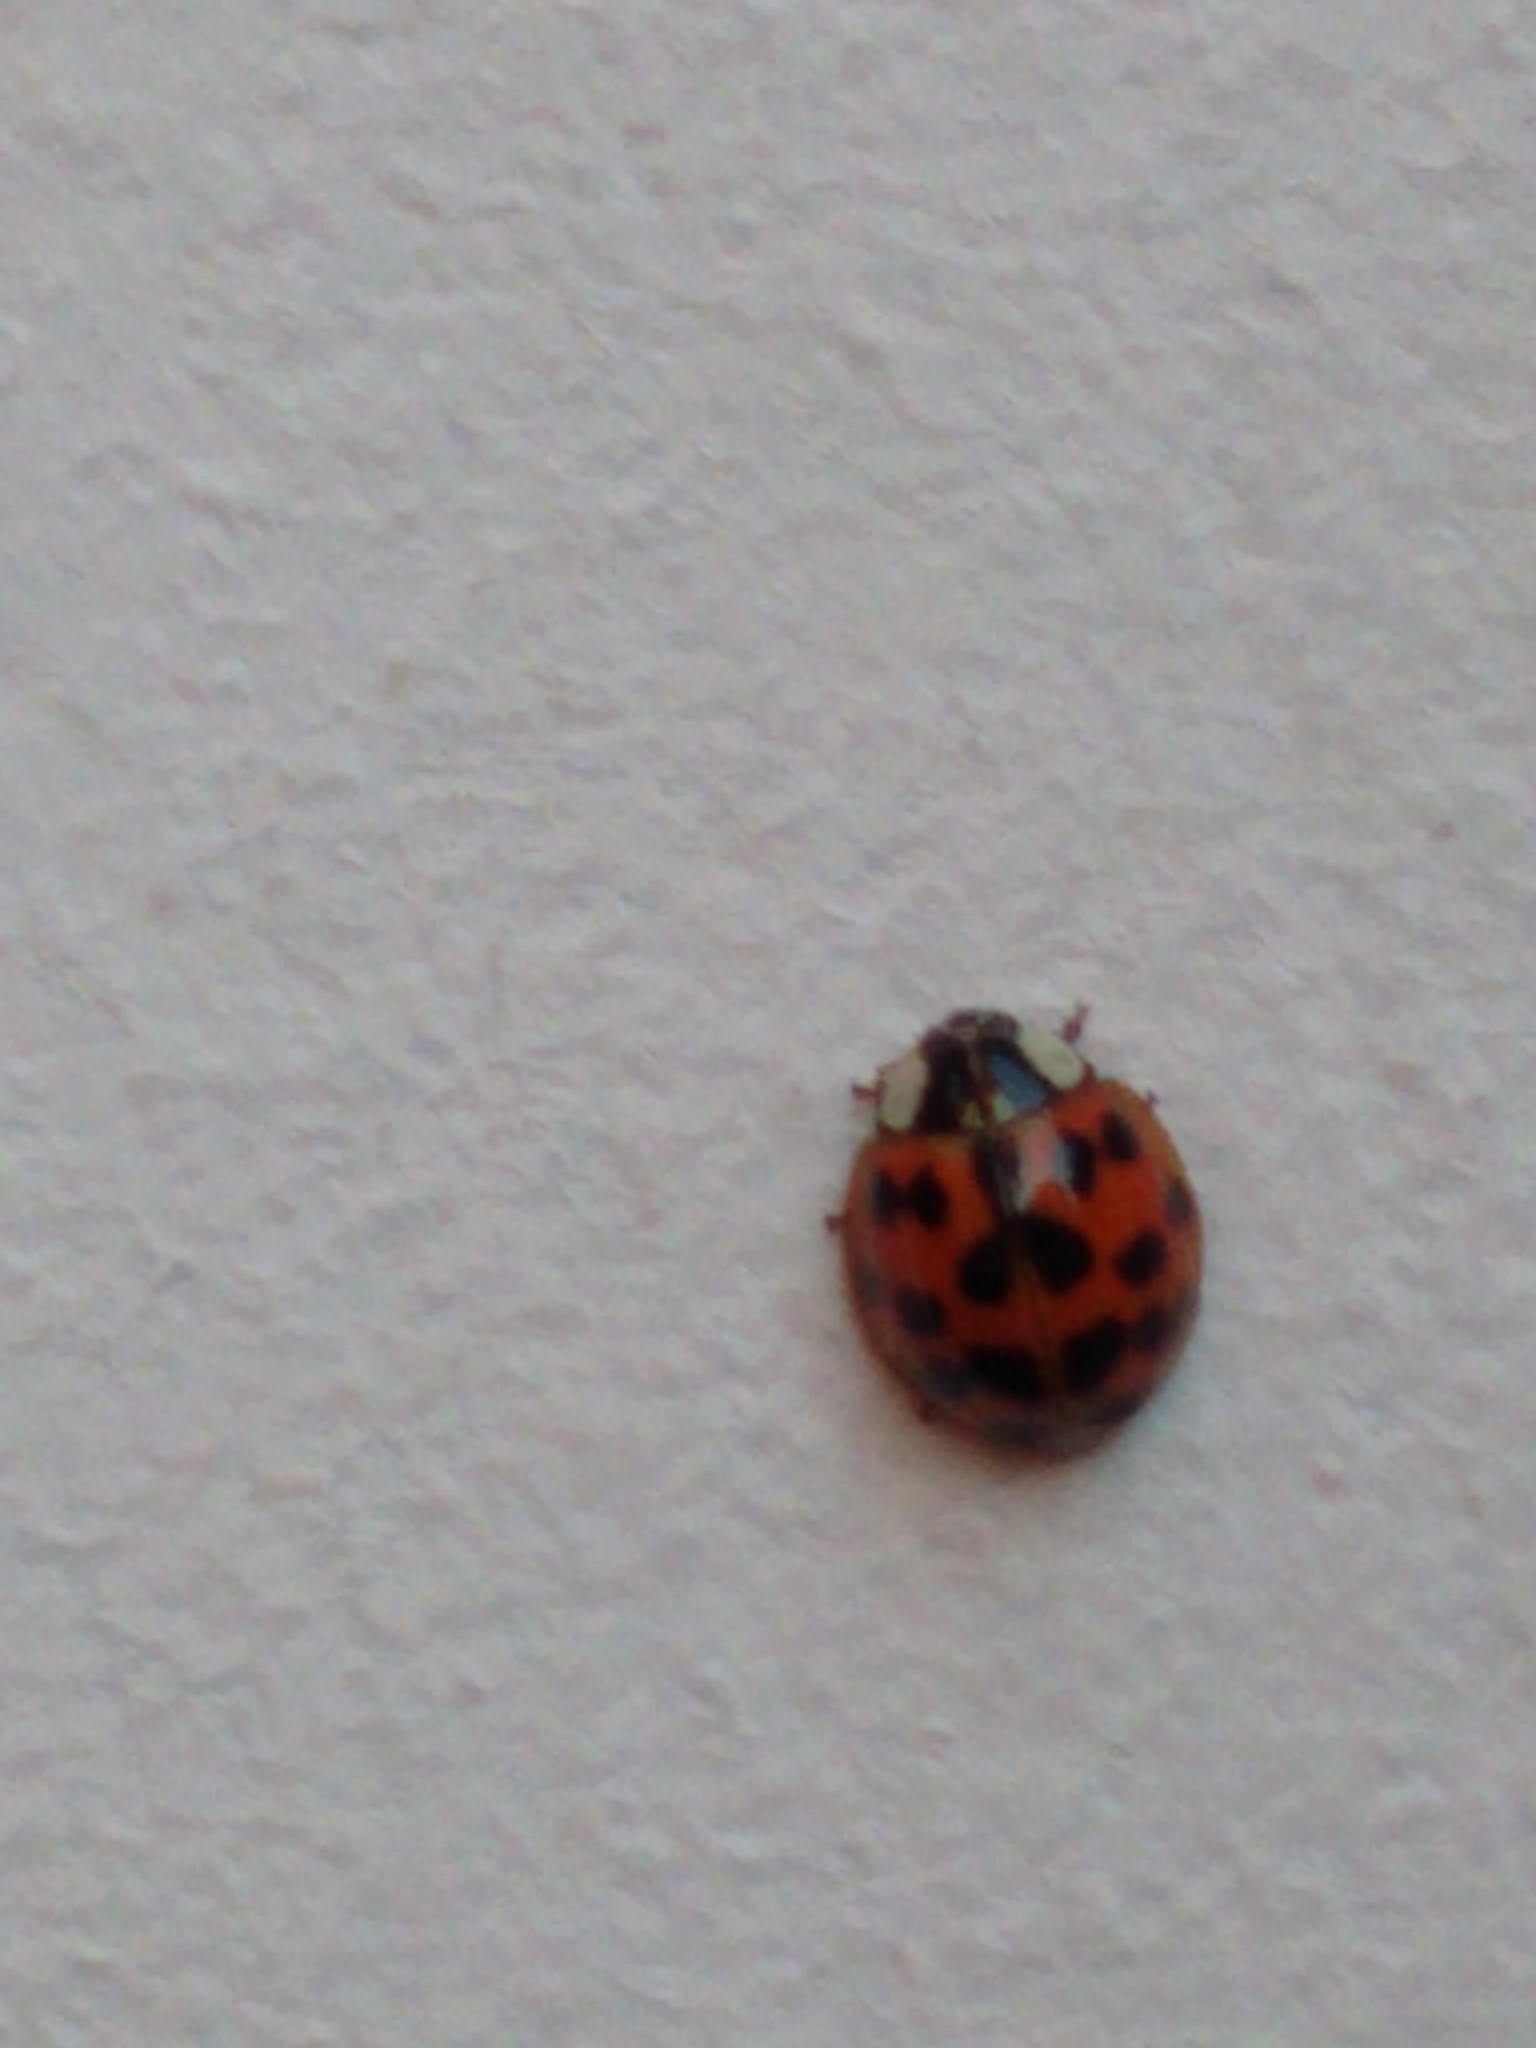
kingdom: Animalia
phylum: Arthropoda
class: Insecta
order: Coleoptera
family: Coccinellidae
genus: Harmonia
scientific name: Harmonia axyridis
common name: Harlequin ladybird
